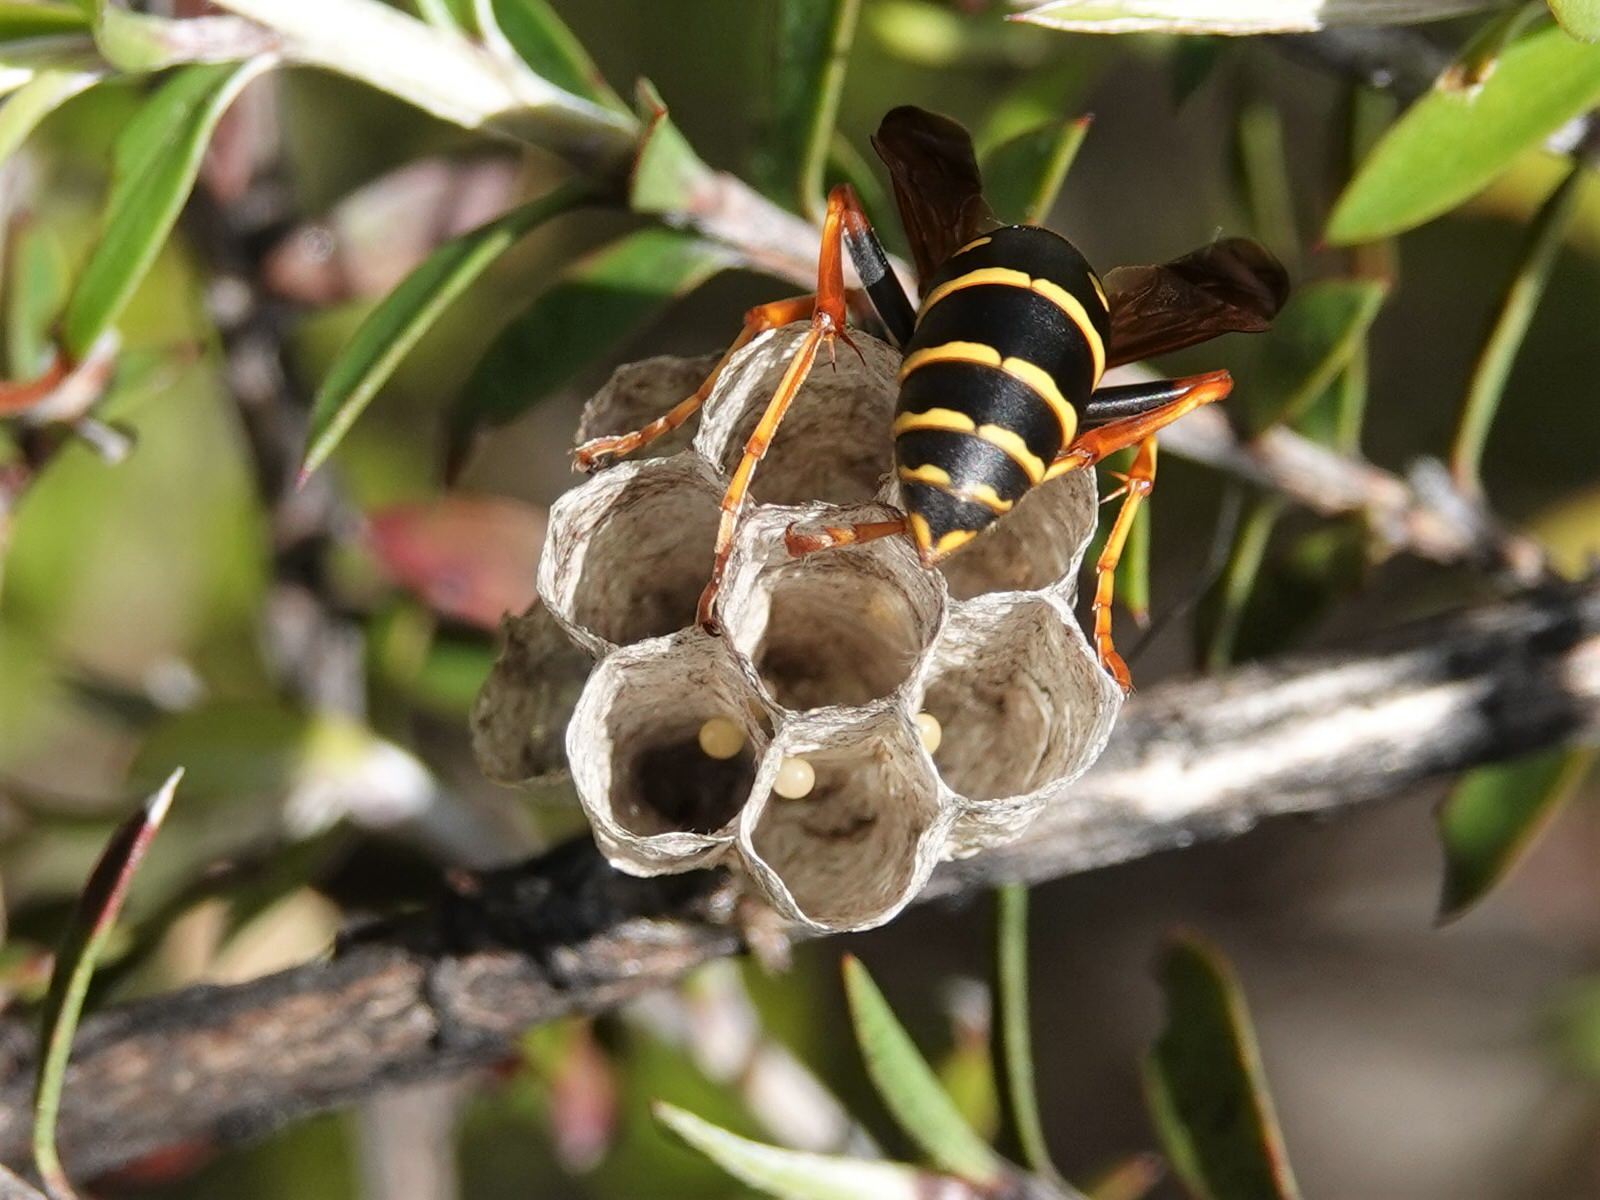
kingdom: Animalia
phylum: Arthropoda
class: Insecta
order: Hymenoptera
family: Eumenidae
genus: Polistes
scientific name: Polistes chinensis
